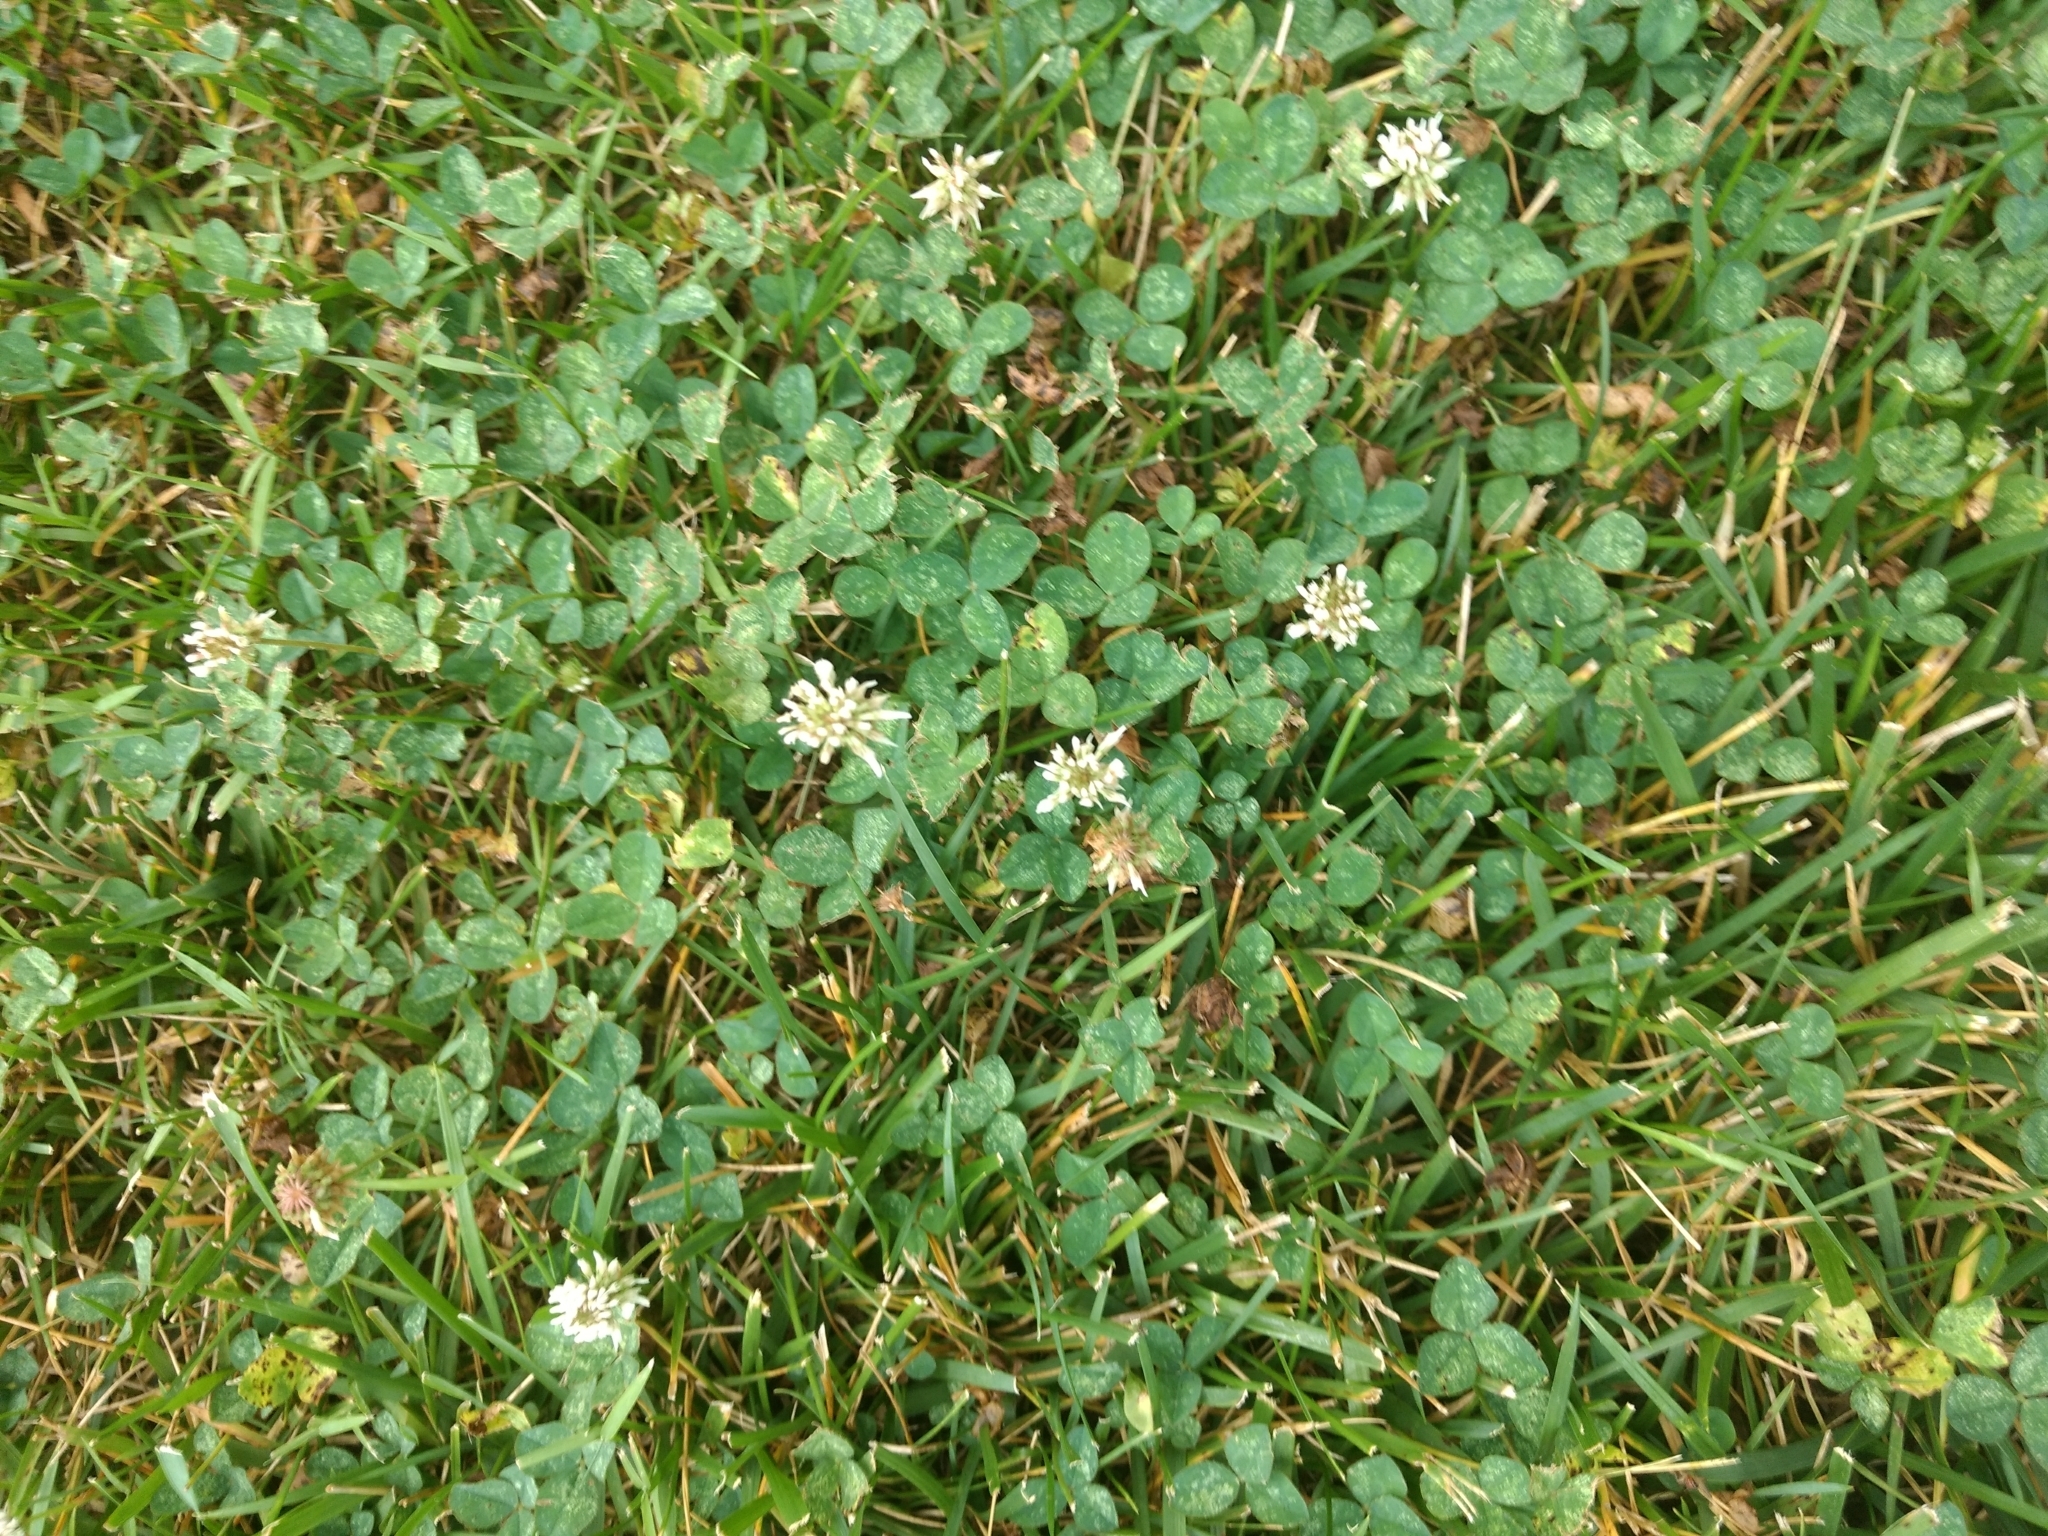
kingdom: Plantae
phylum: Tracheophyta
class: Magnoliopsida
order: Fabales
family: Fabaceae
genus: Trifolium
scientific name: Trifolium repens
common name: White clover
